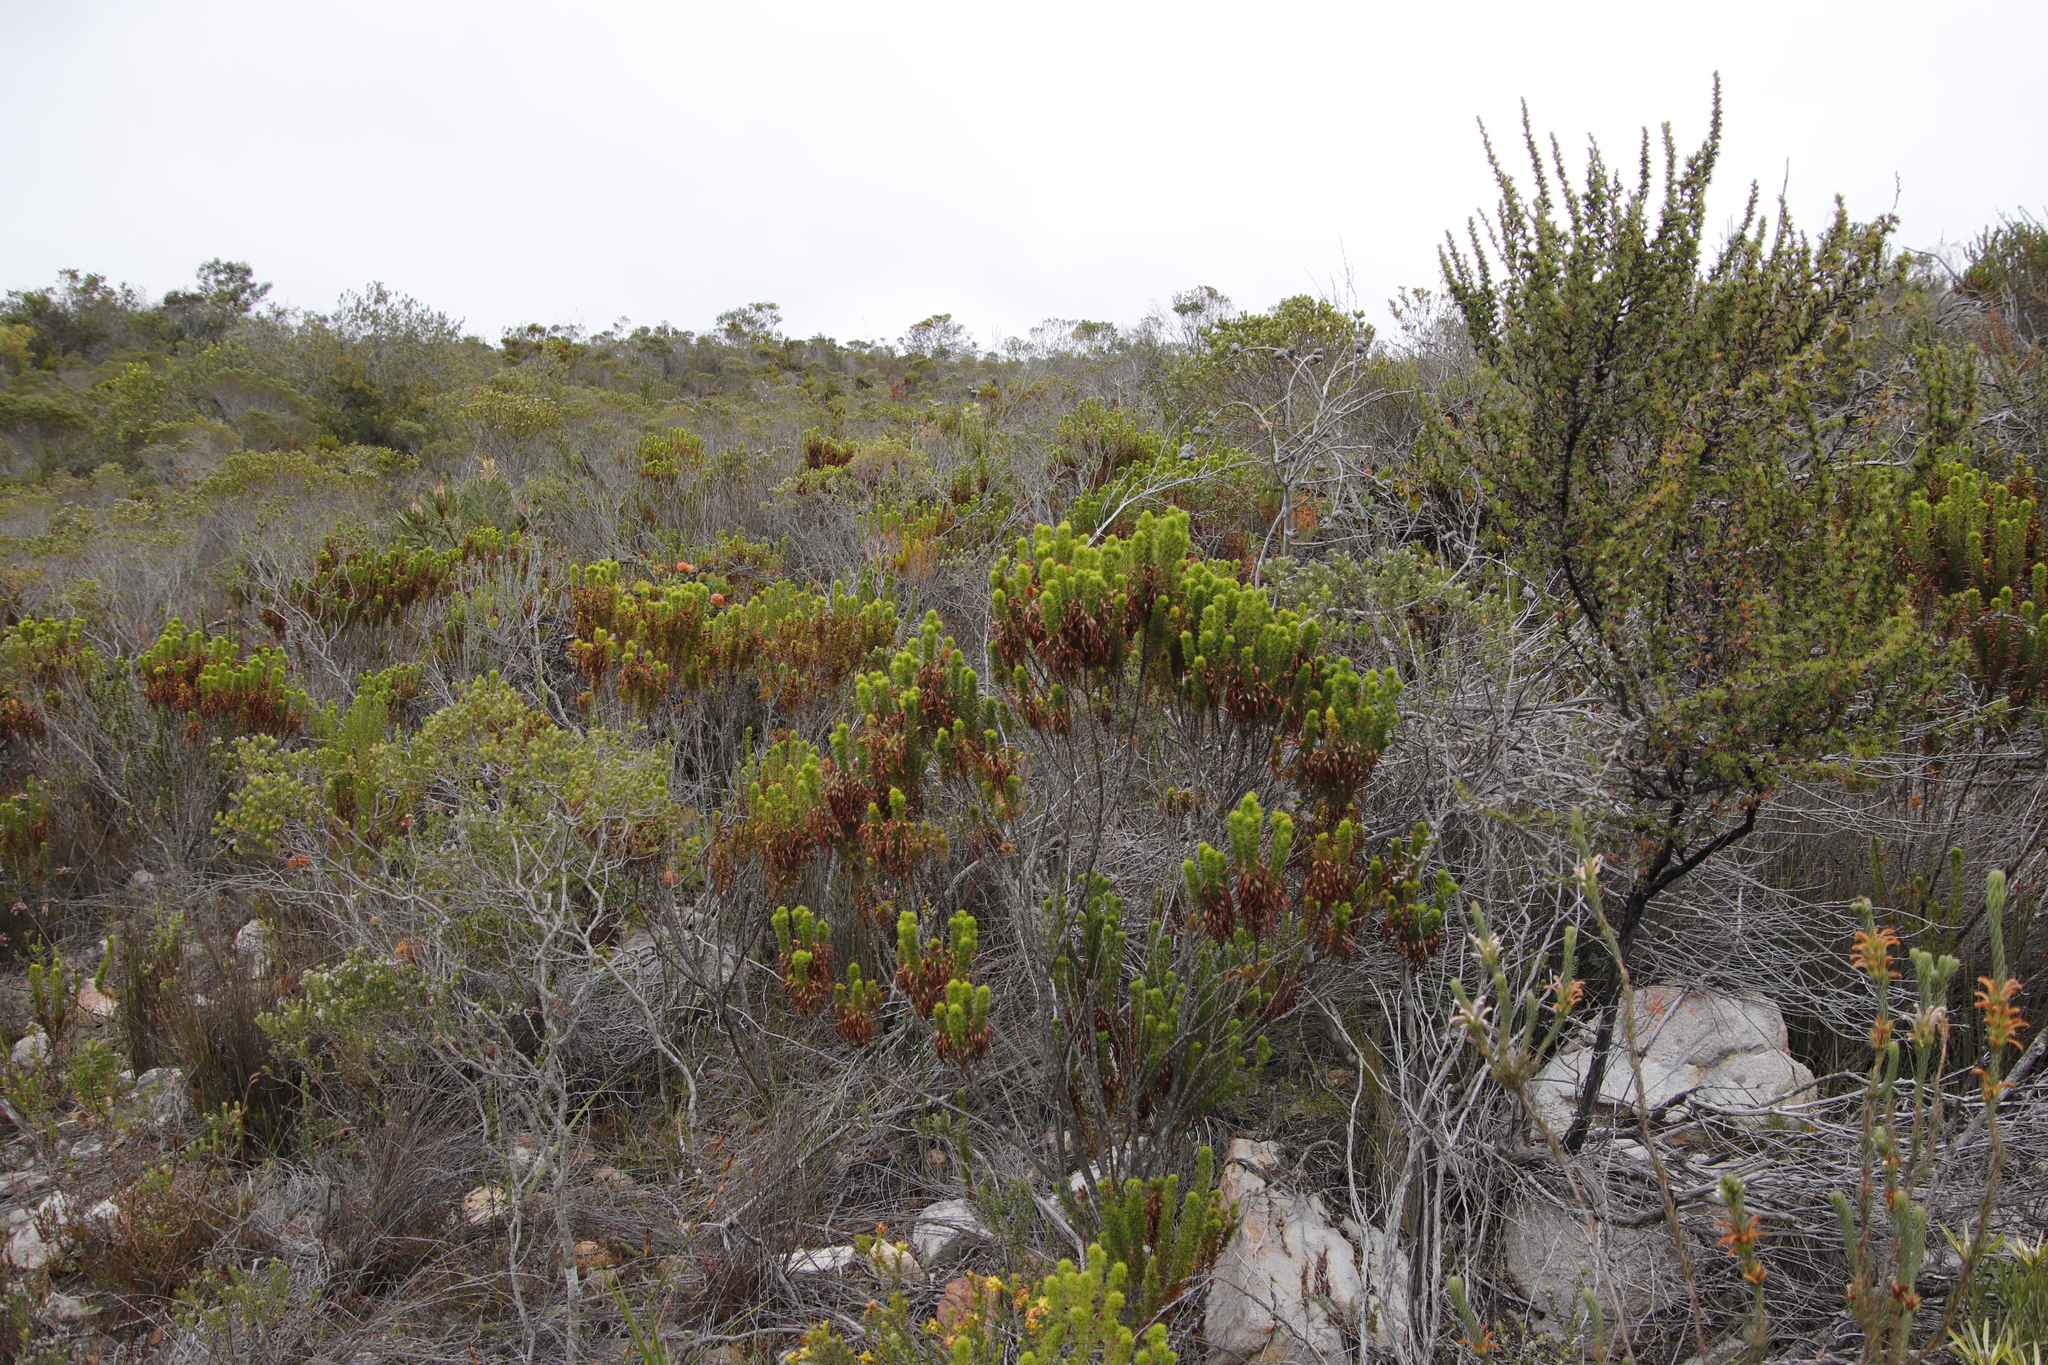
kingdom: Plantae
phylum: Tracheophyta
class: Magnoliopsida
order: Ericales
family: Ericaceae
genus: Erica
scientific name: Erica coccinea
